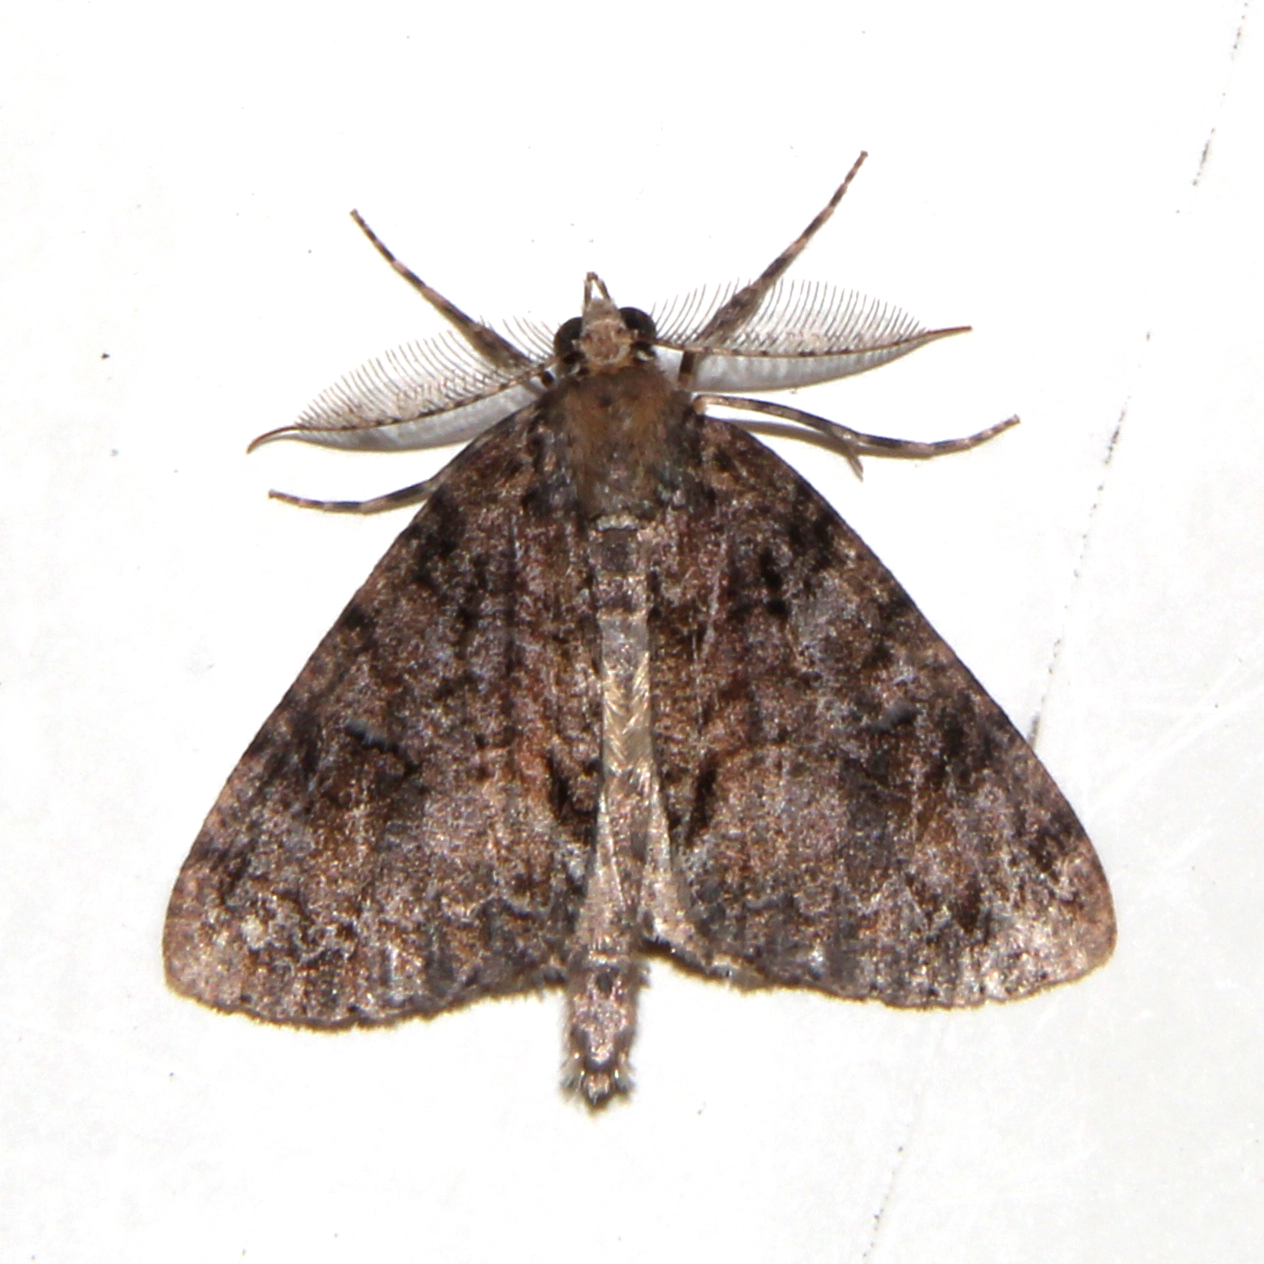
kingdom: Animalia
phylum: Arthropoda
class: Insecta
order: Lepidoptera
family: Geometridae
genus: Pseudocoremia
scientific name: Pseudocoremia suavis
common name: Common forest looper
